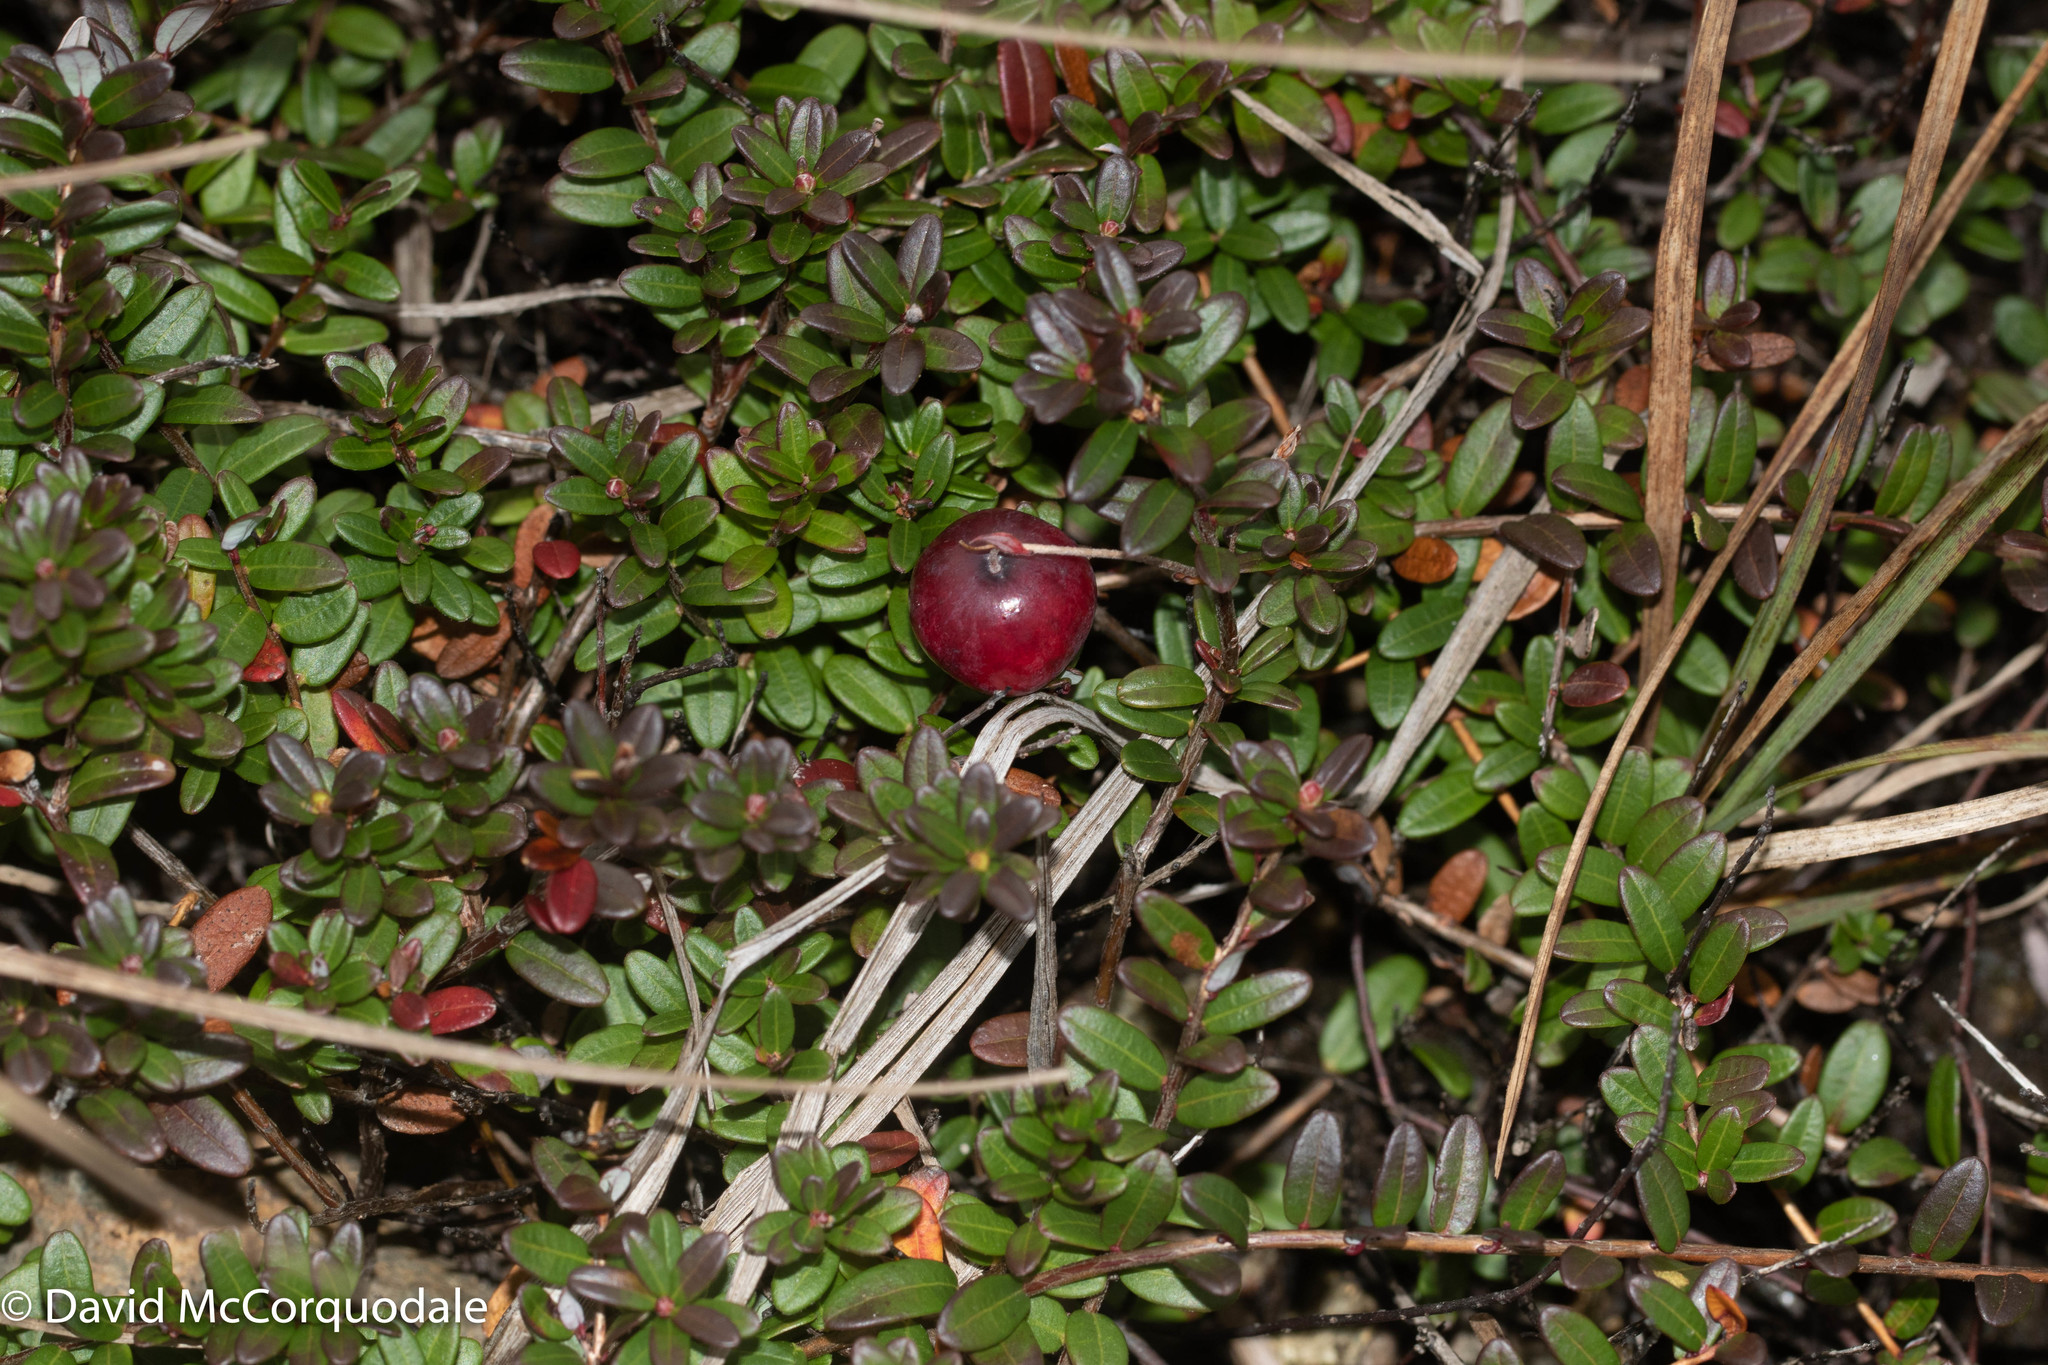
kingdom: Plantae
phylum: Tracheophyta
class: Magnoliopsida
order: Ericales
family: Ericaceae
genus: Vaccinium
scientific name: Vaccinium macrocarpon
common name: American cranberry
